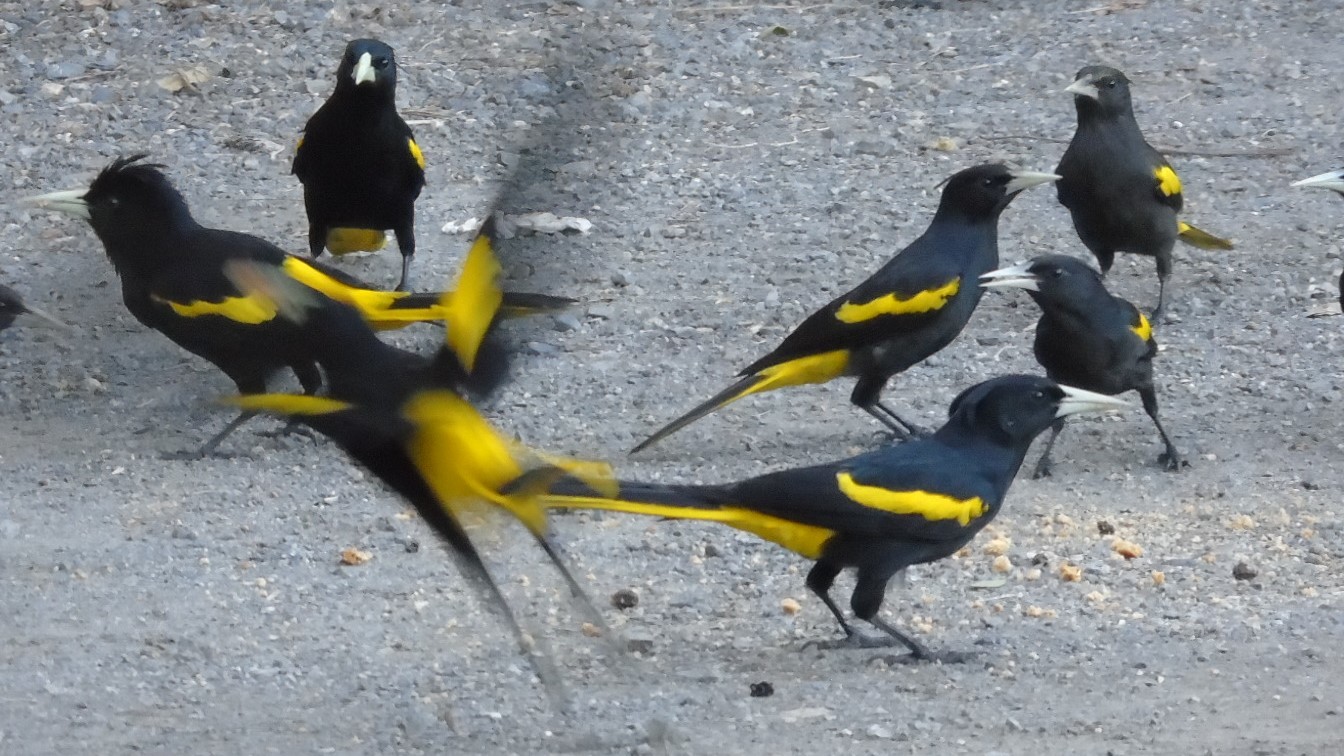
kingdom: Animalia
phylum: Chordata
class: Aves
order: Passeriformes
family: Icteridae
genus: Cacicus
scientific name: Cacicus melanicterus
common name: Yellow-winged cacique
